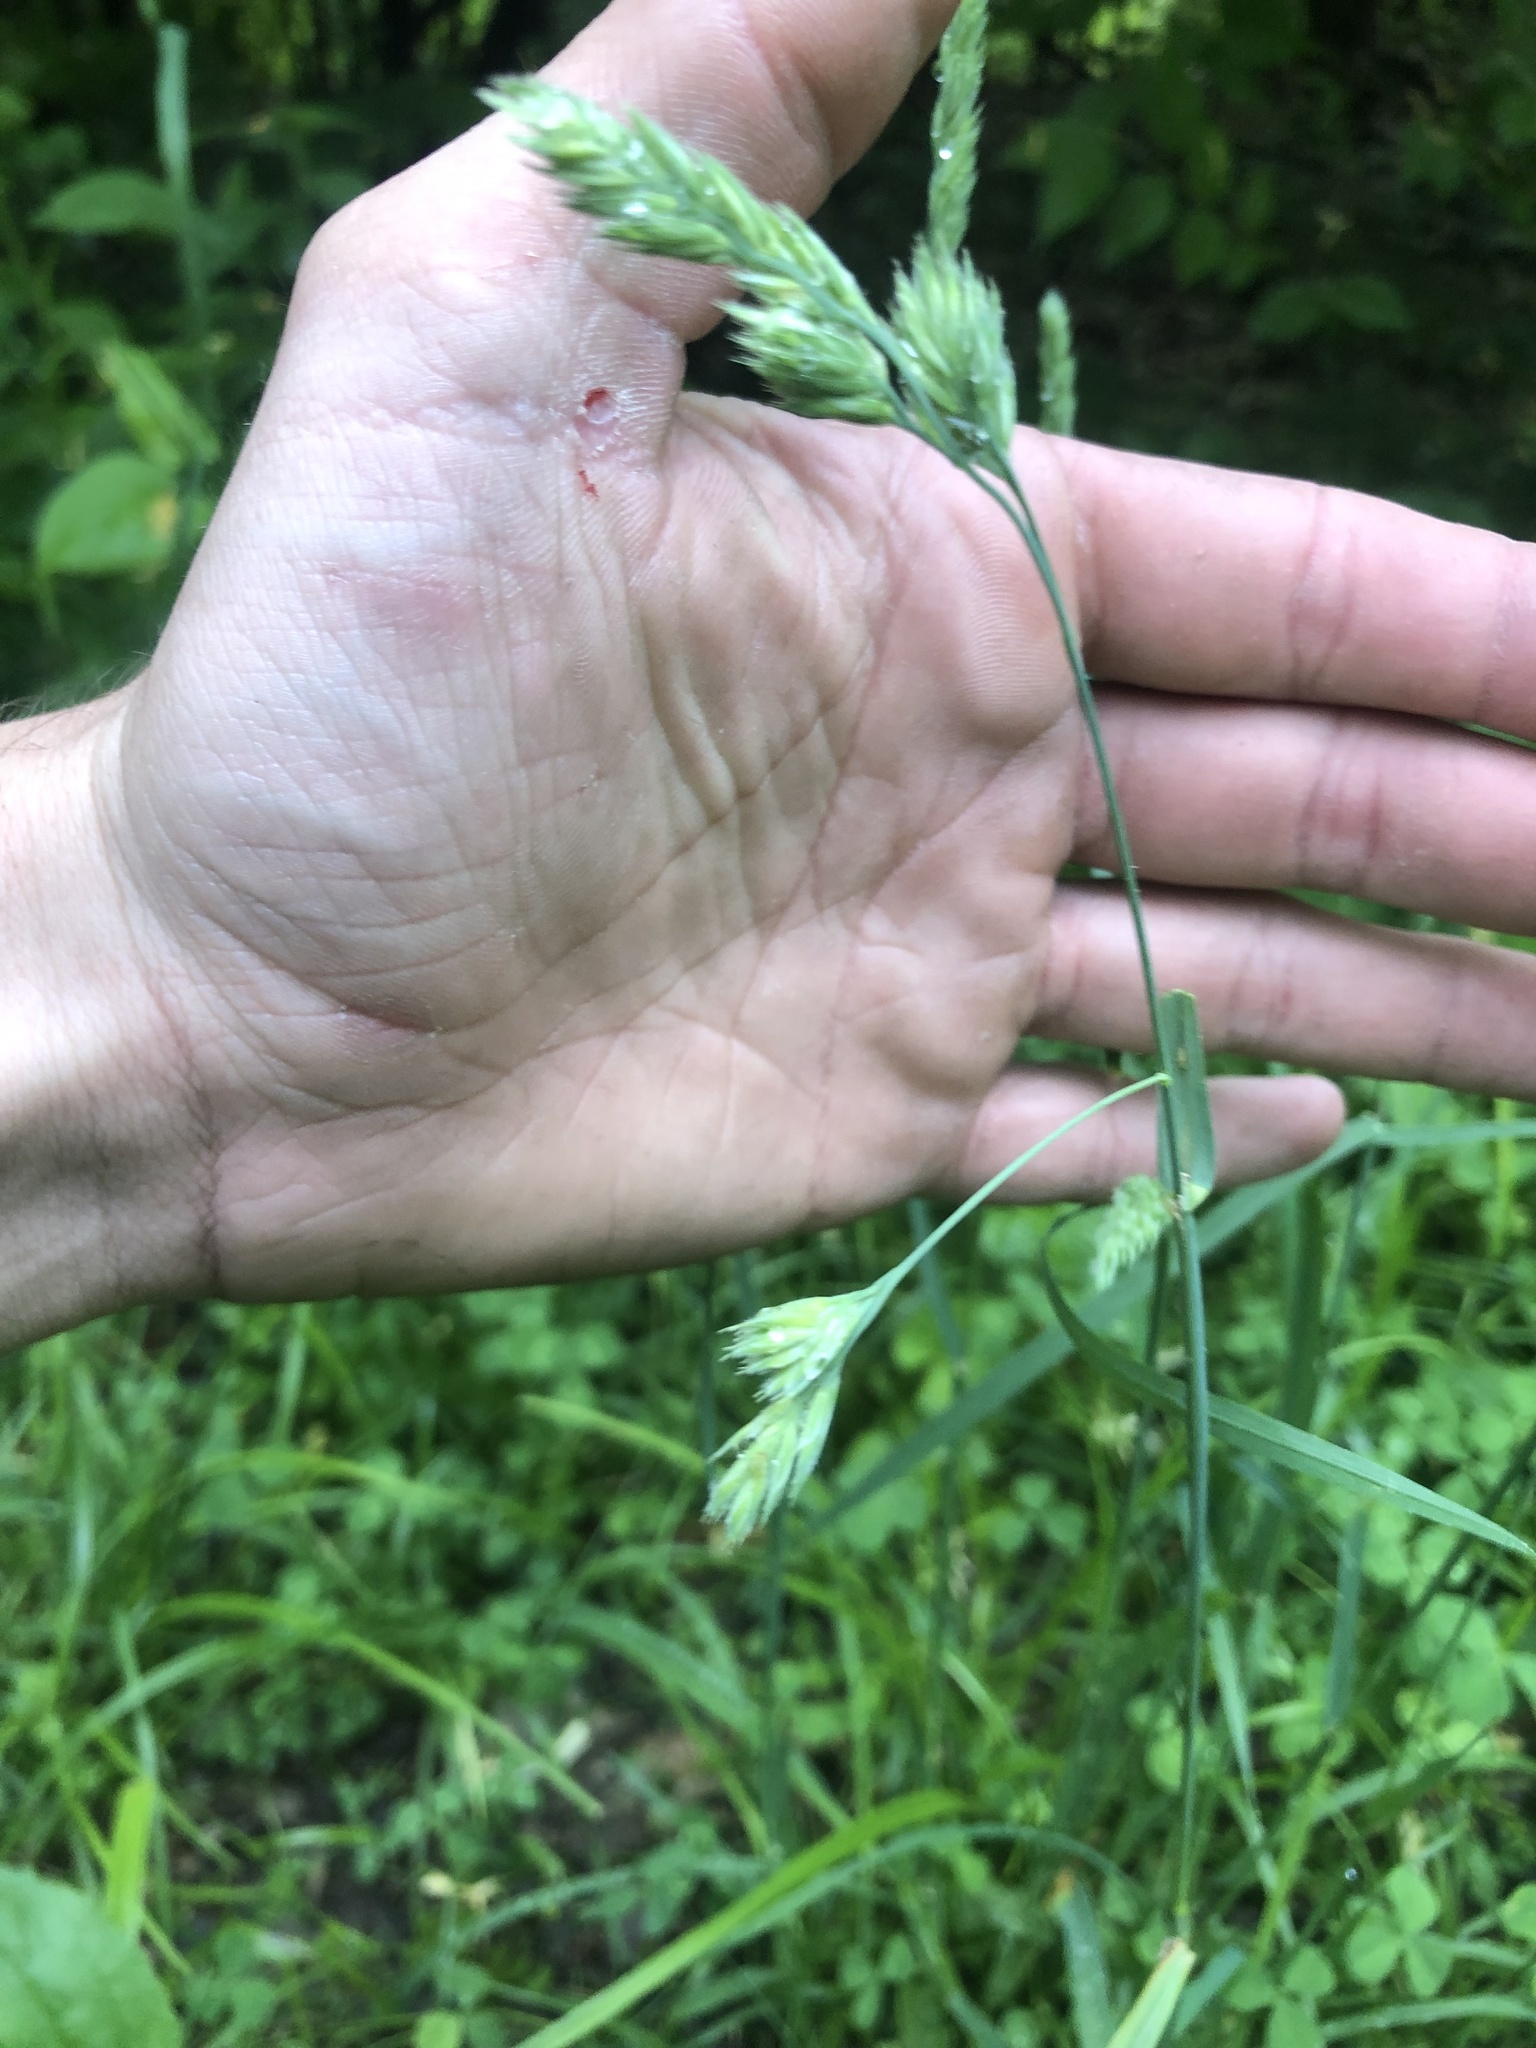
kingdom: Plantae
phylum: Tracheophyta
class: Liliopsida
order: Poales
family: Poaceae
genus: Dactylis
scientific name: Dactylis glomerata
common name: Orchardgrass
